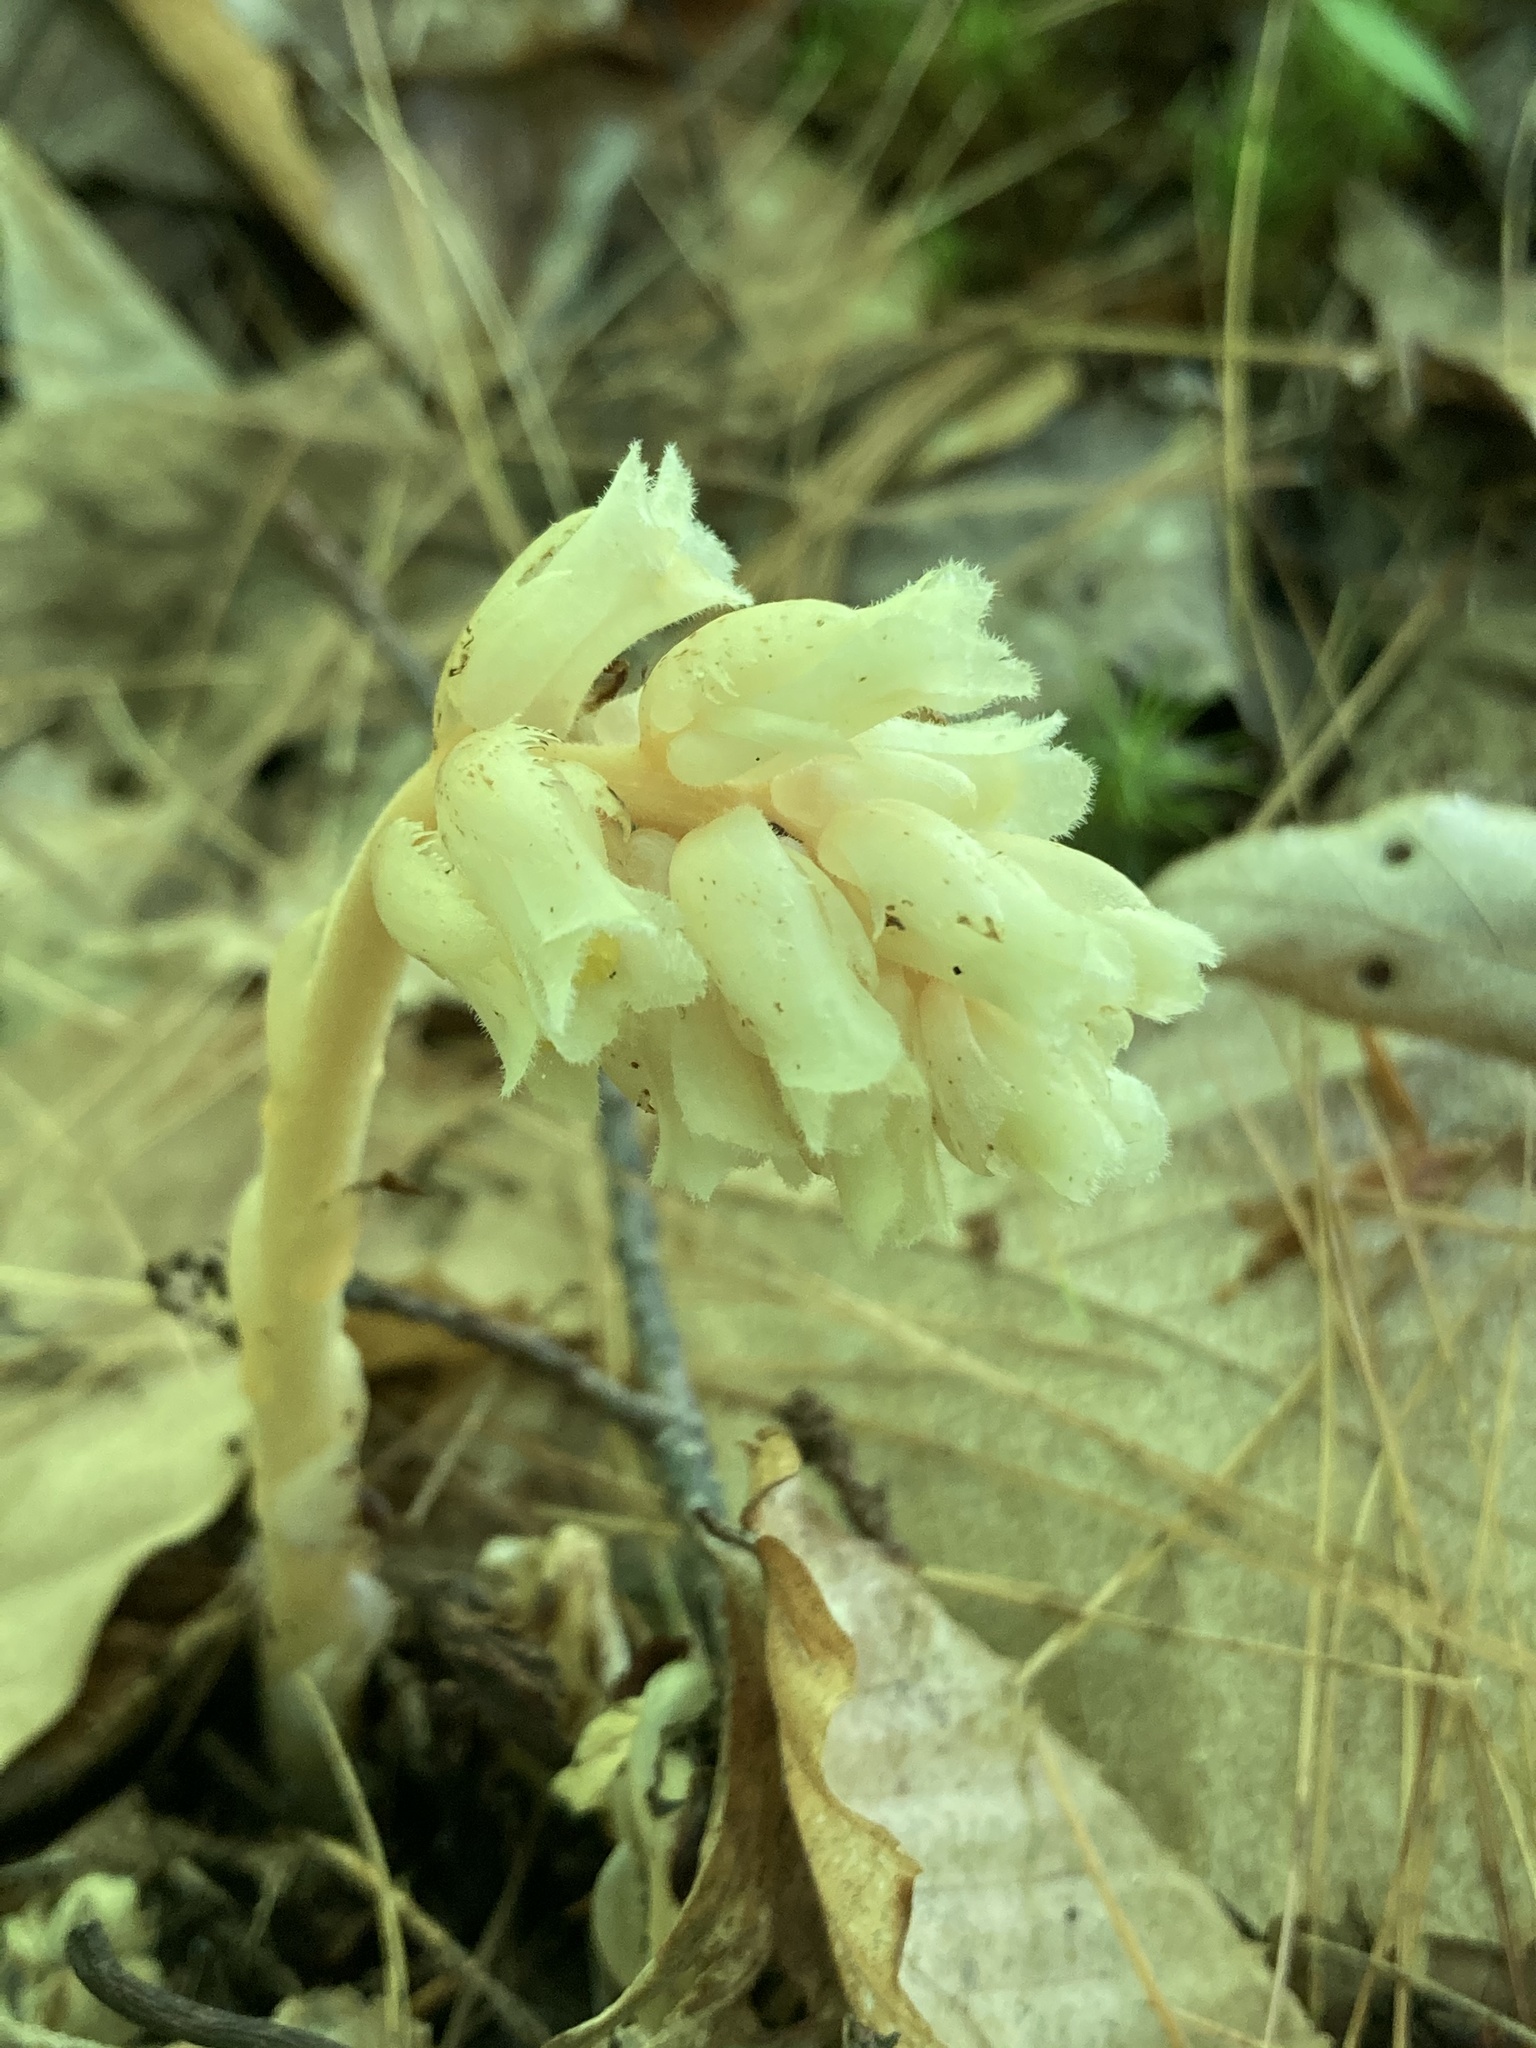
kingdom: Plantae
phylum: Tracheophyta
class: Magnoliopsida
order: Ericales
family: Ericaceae
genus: Hypopitys
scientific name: Hypopitys monotropa
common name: Yellow bird's-nest
